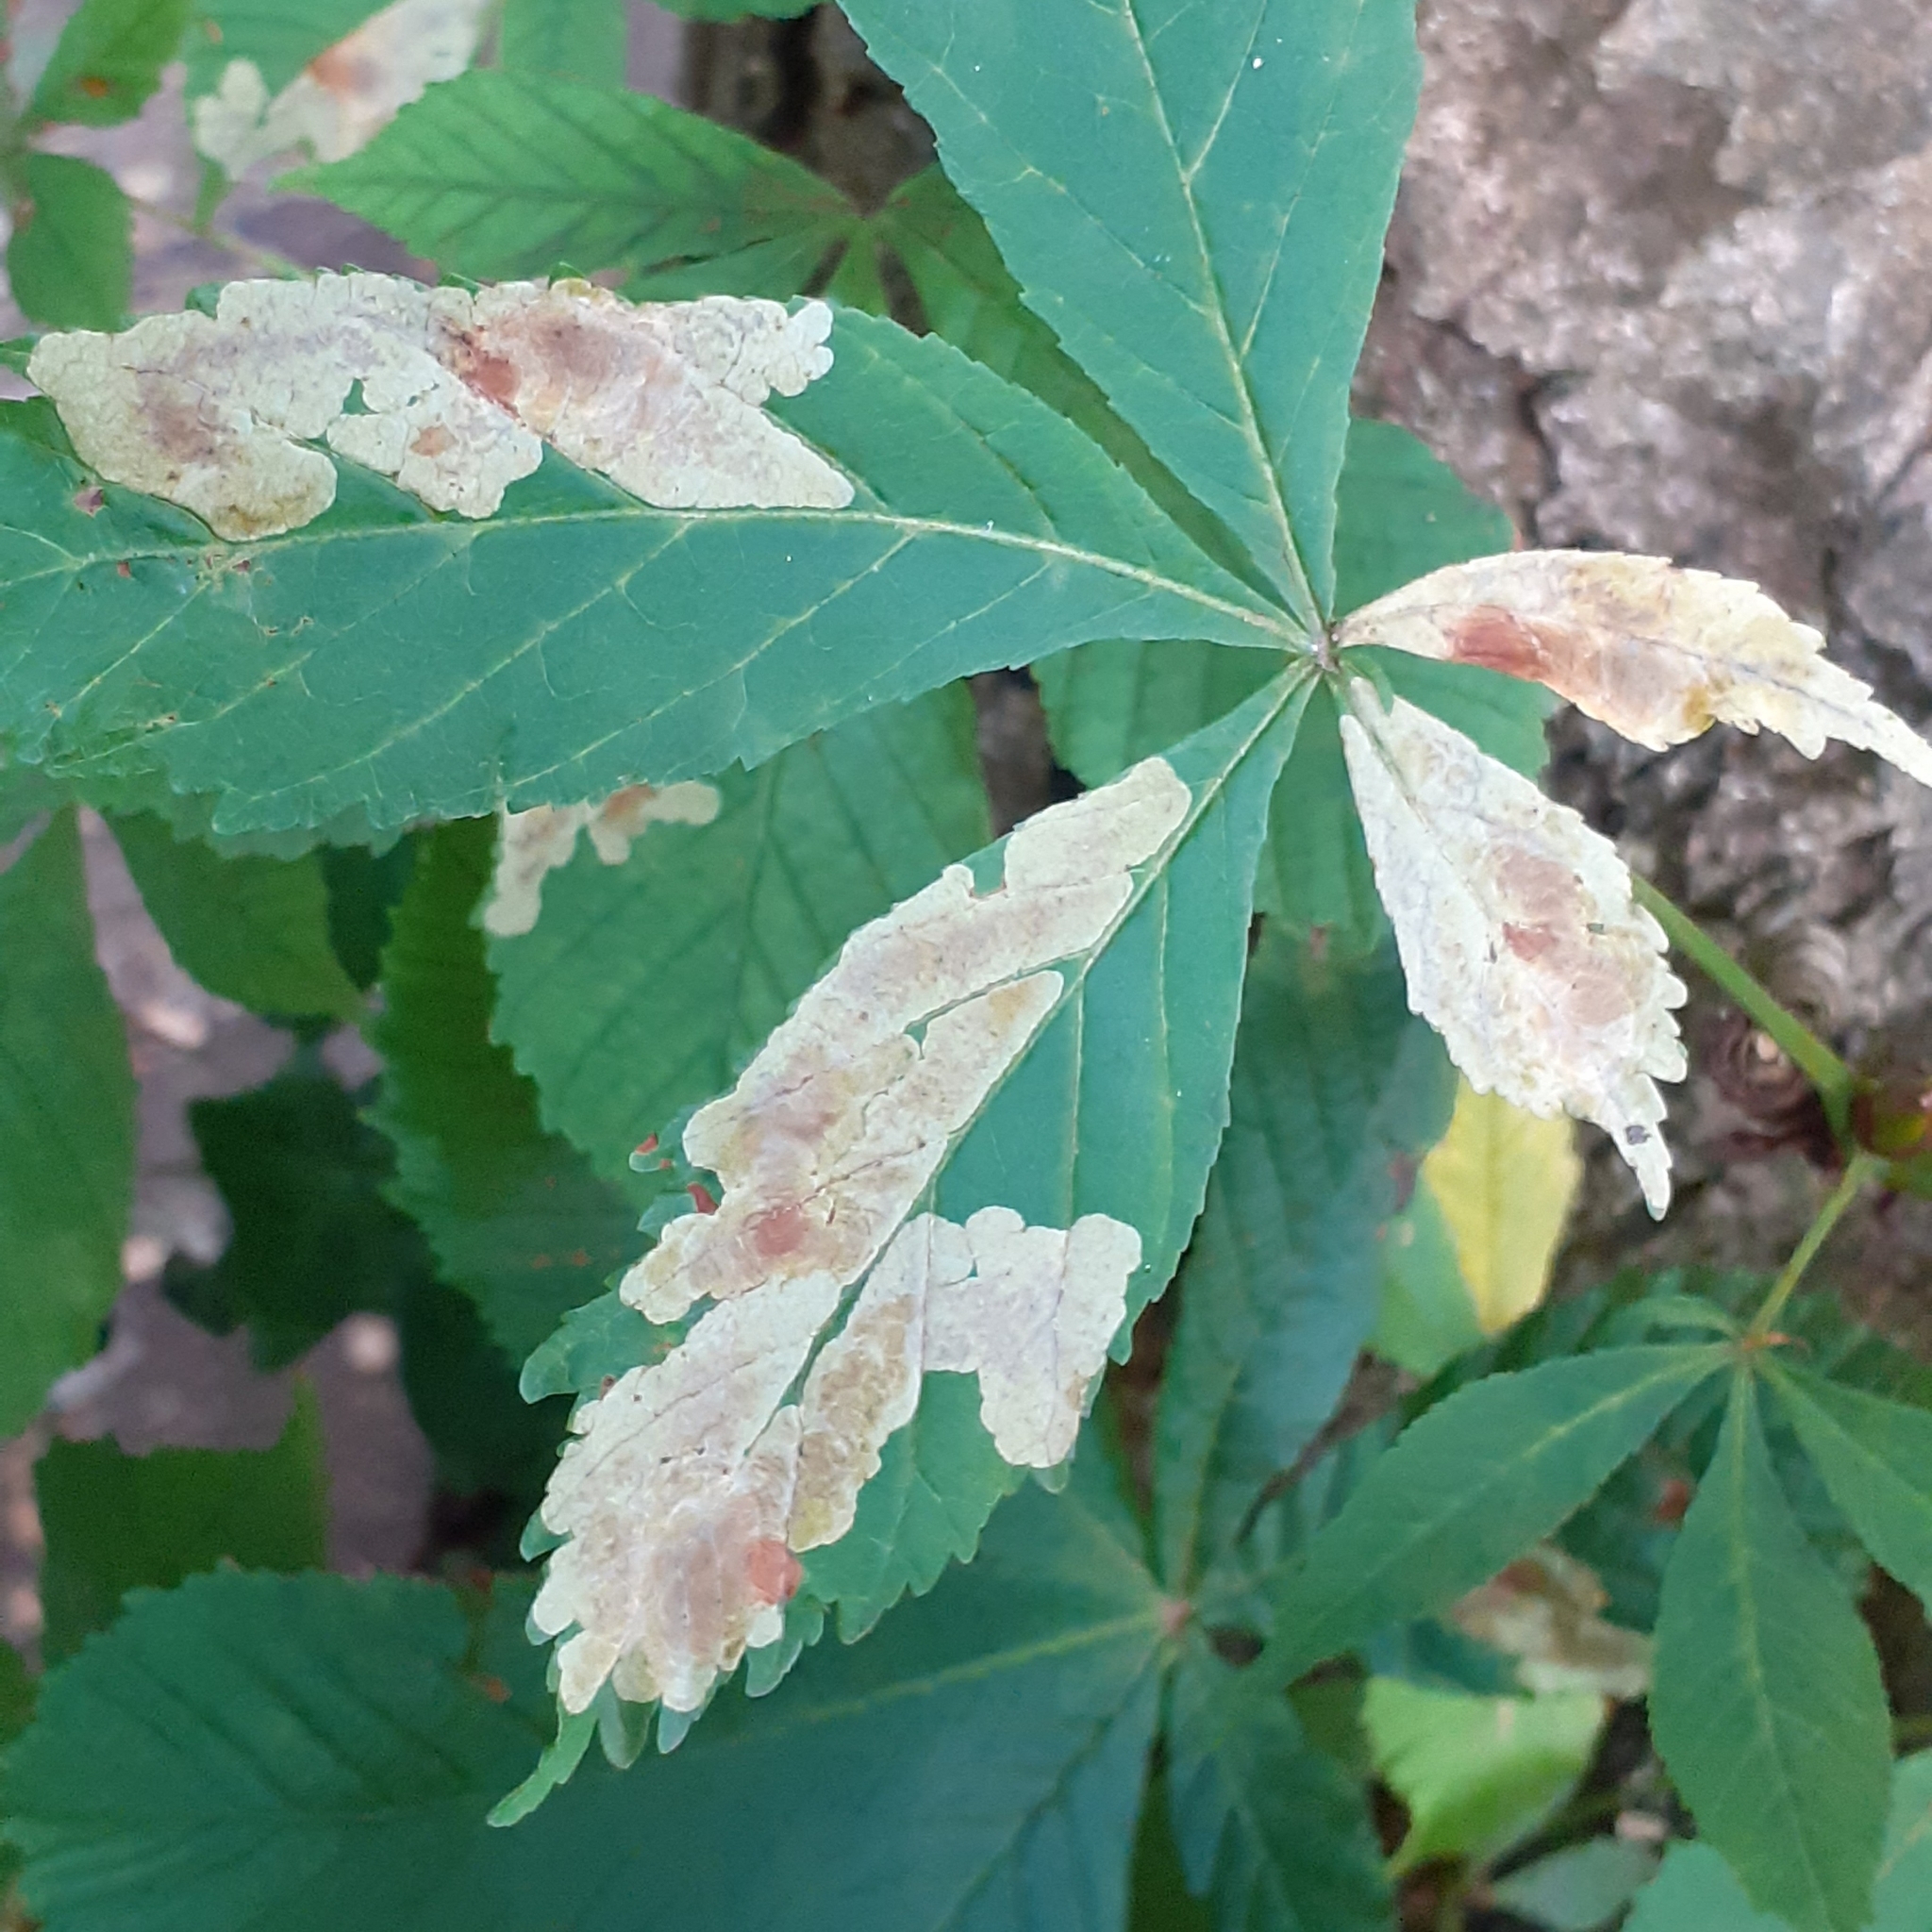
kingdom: Animalia
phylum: Arthropoda
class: Insecta
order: Lepidoptera
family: Gracillariidae
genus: Cameraria
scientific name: Cameraria ohridella
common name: Horse-chestnut leaf-miner
